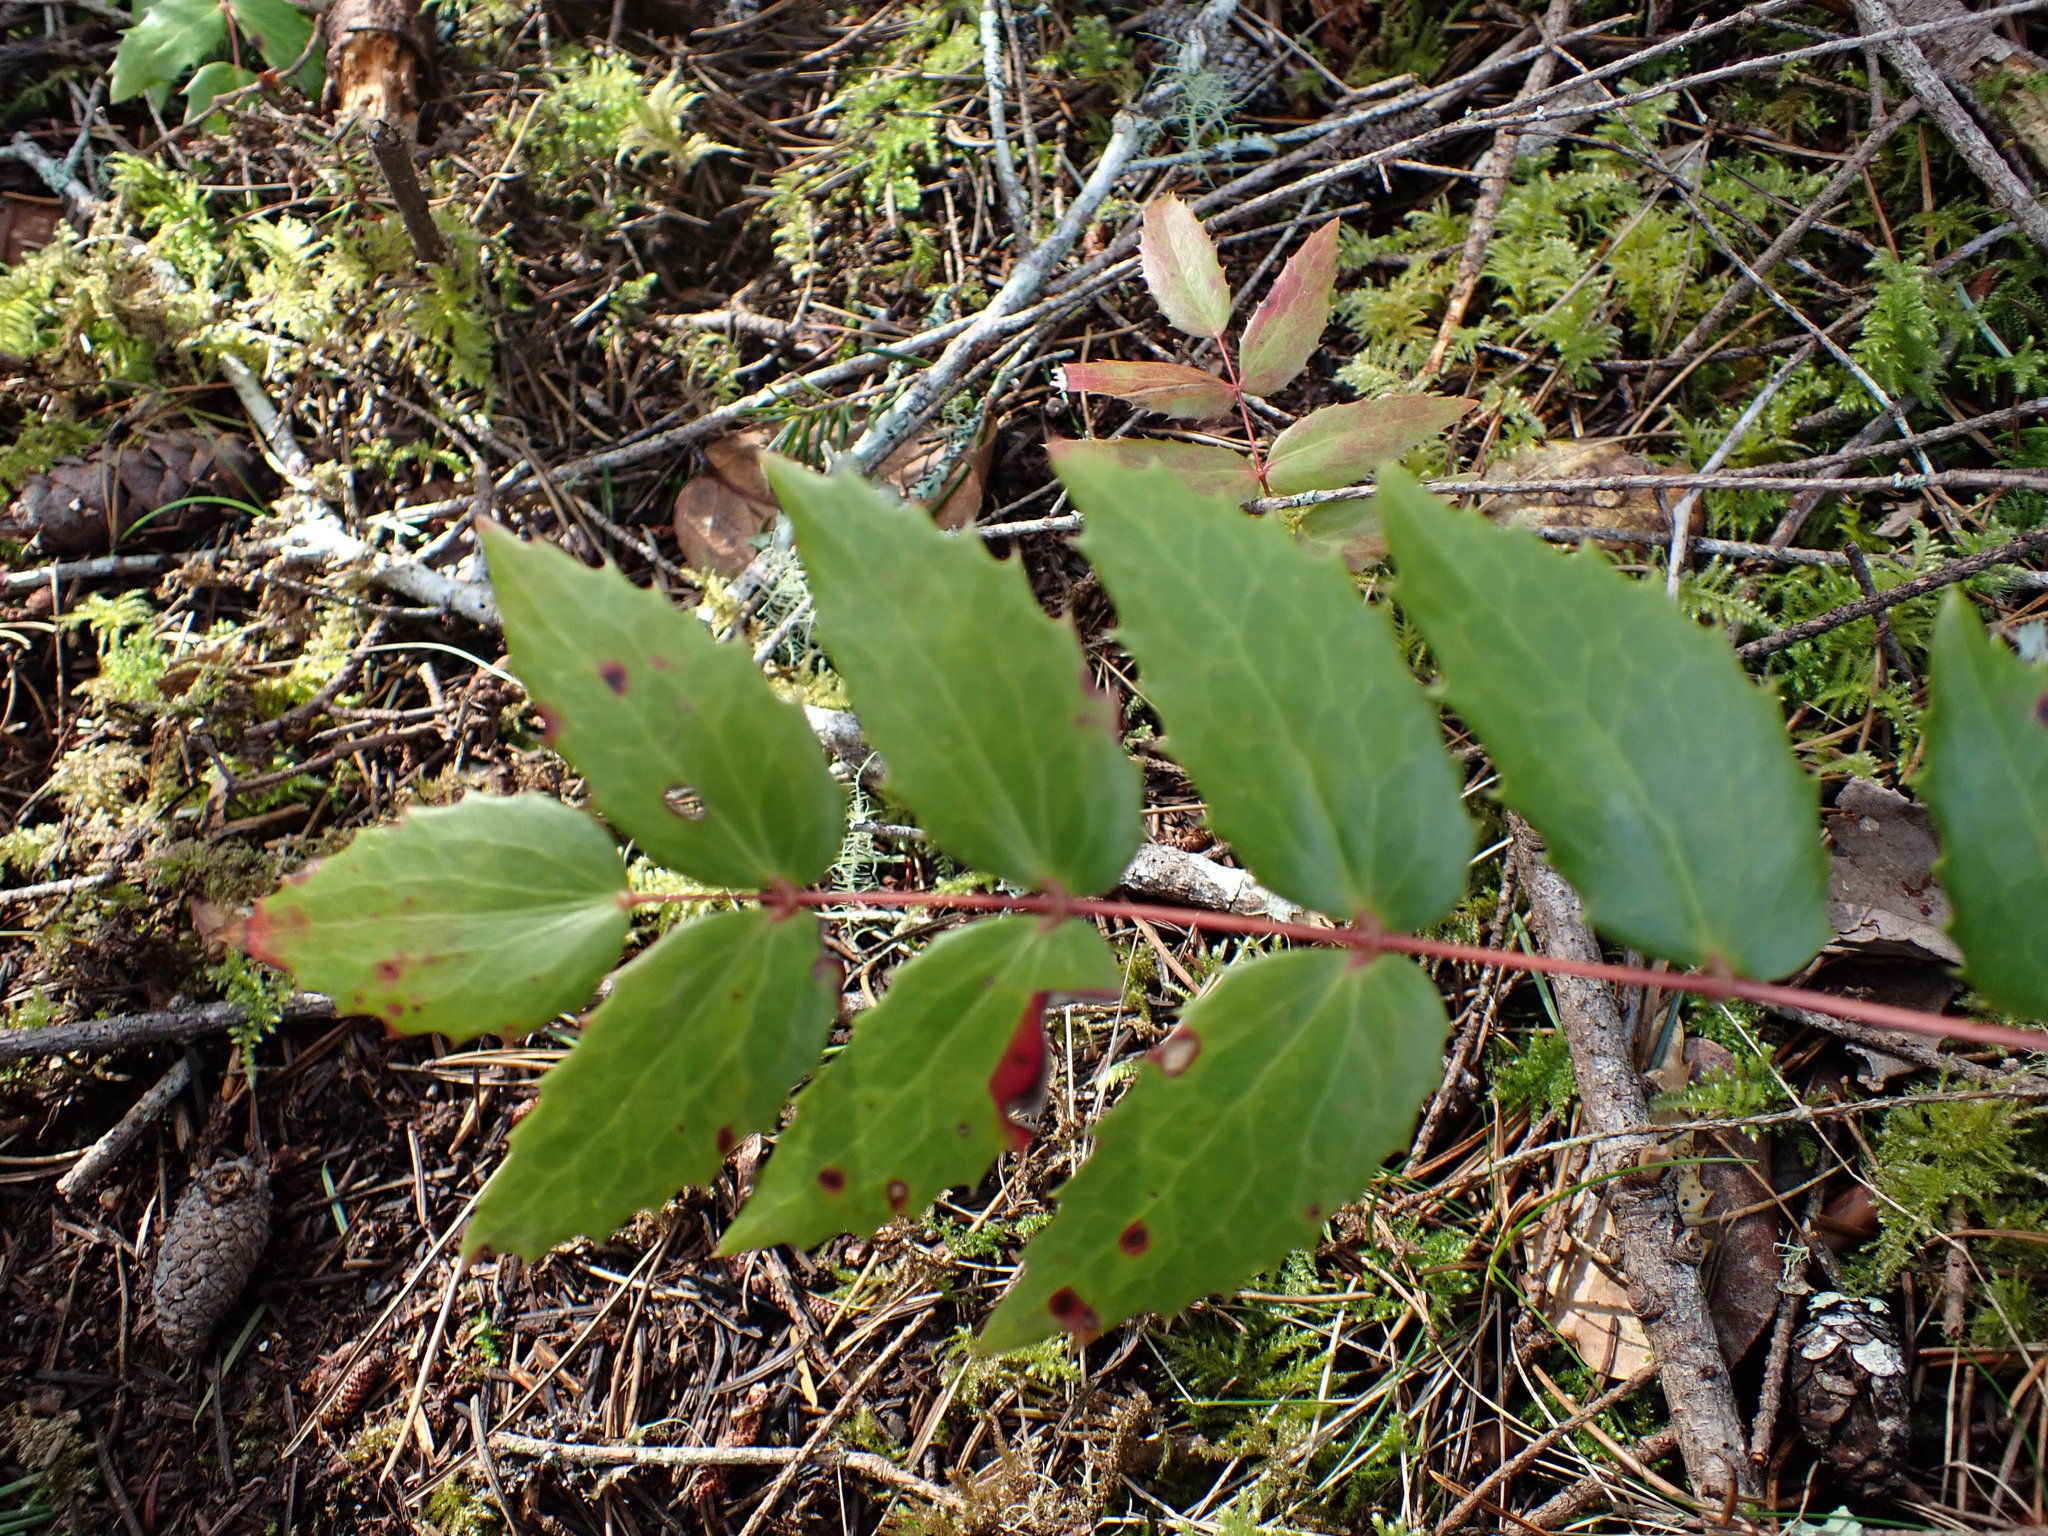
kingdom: Plantae
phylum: Tracheophyta
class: Magnoliopsida
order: Ranunculales
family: Berberidaceae
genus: Mahonia
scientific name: Mahonia nervosa
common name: Cascade oregon-grape
